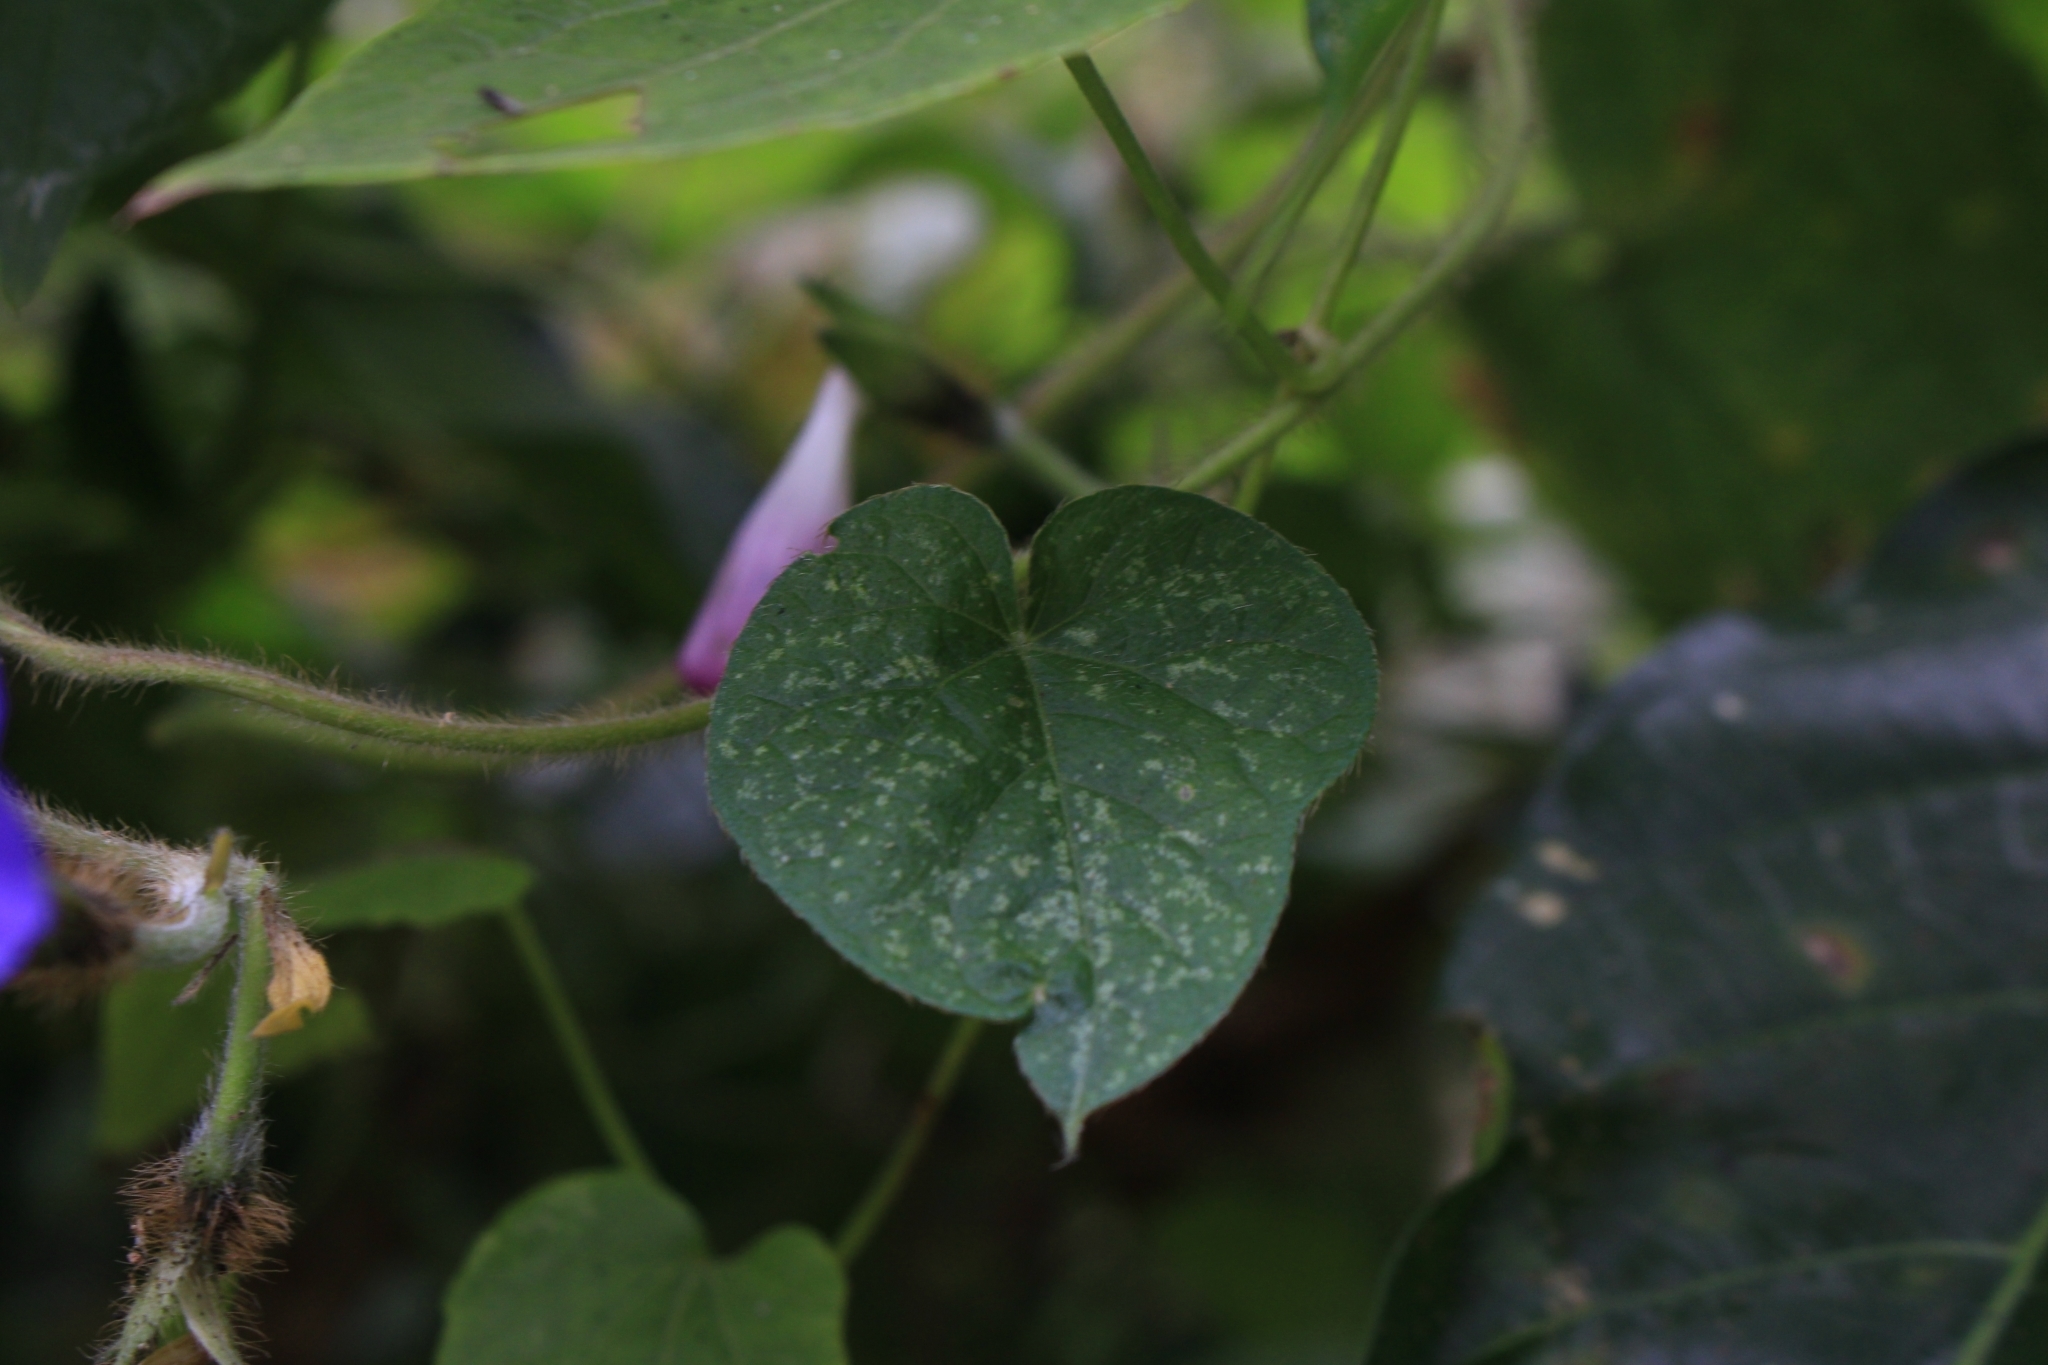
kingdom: Plantae
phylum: Tracheophyta
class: Magnoliopsida
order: Solanales
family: Convolvulaceae
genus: Ipomoea
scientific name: Ipomoea purpurea
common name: Common morning-glory
